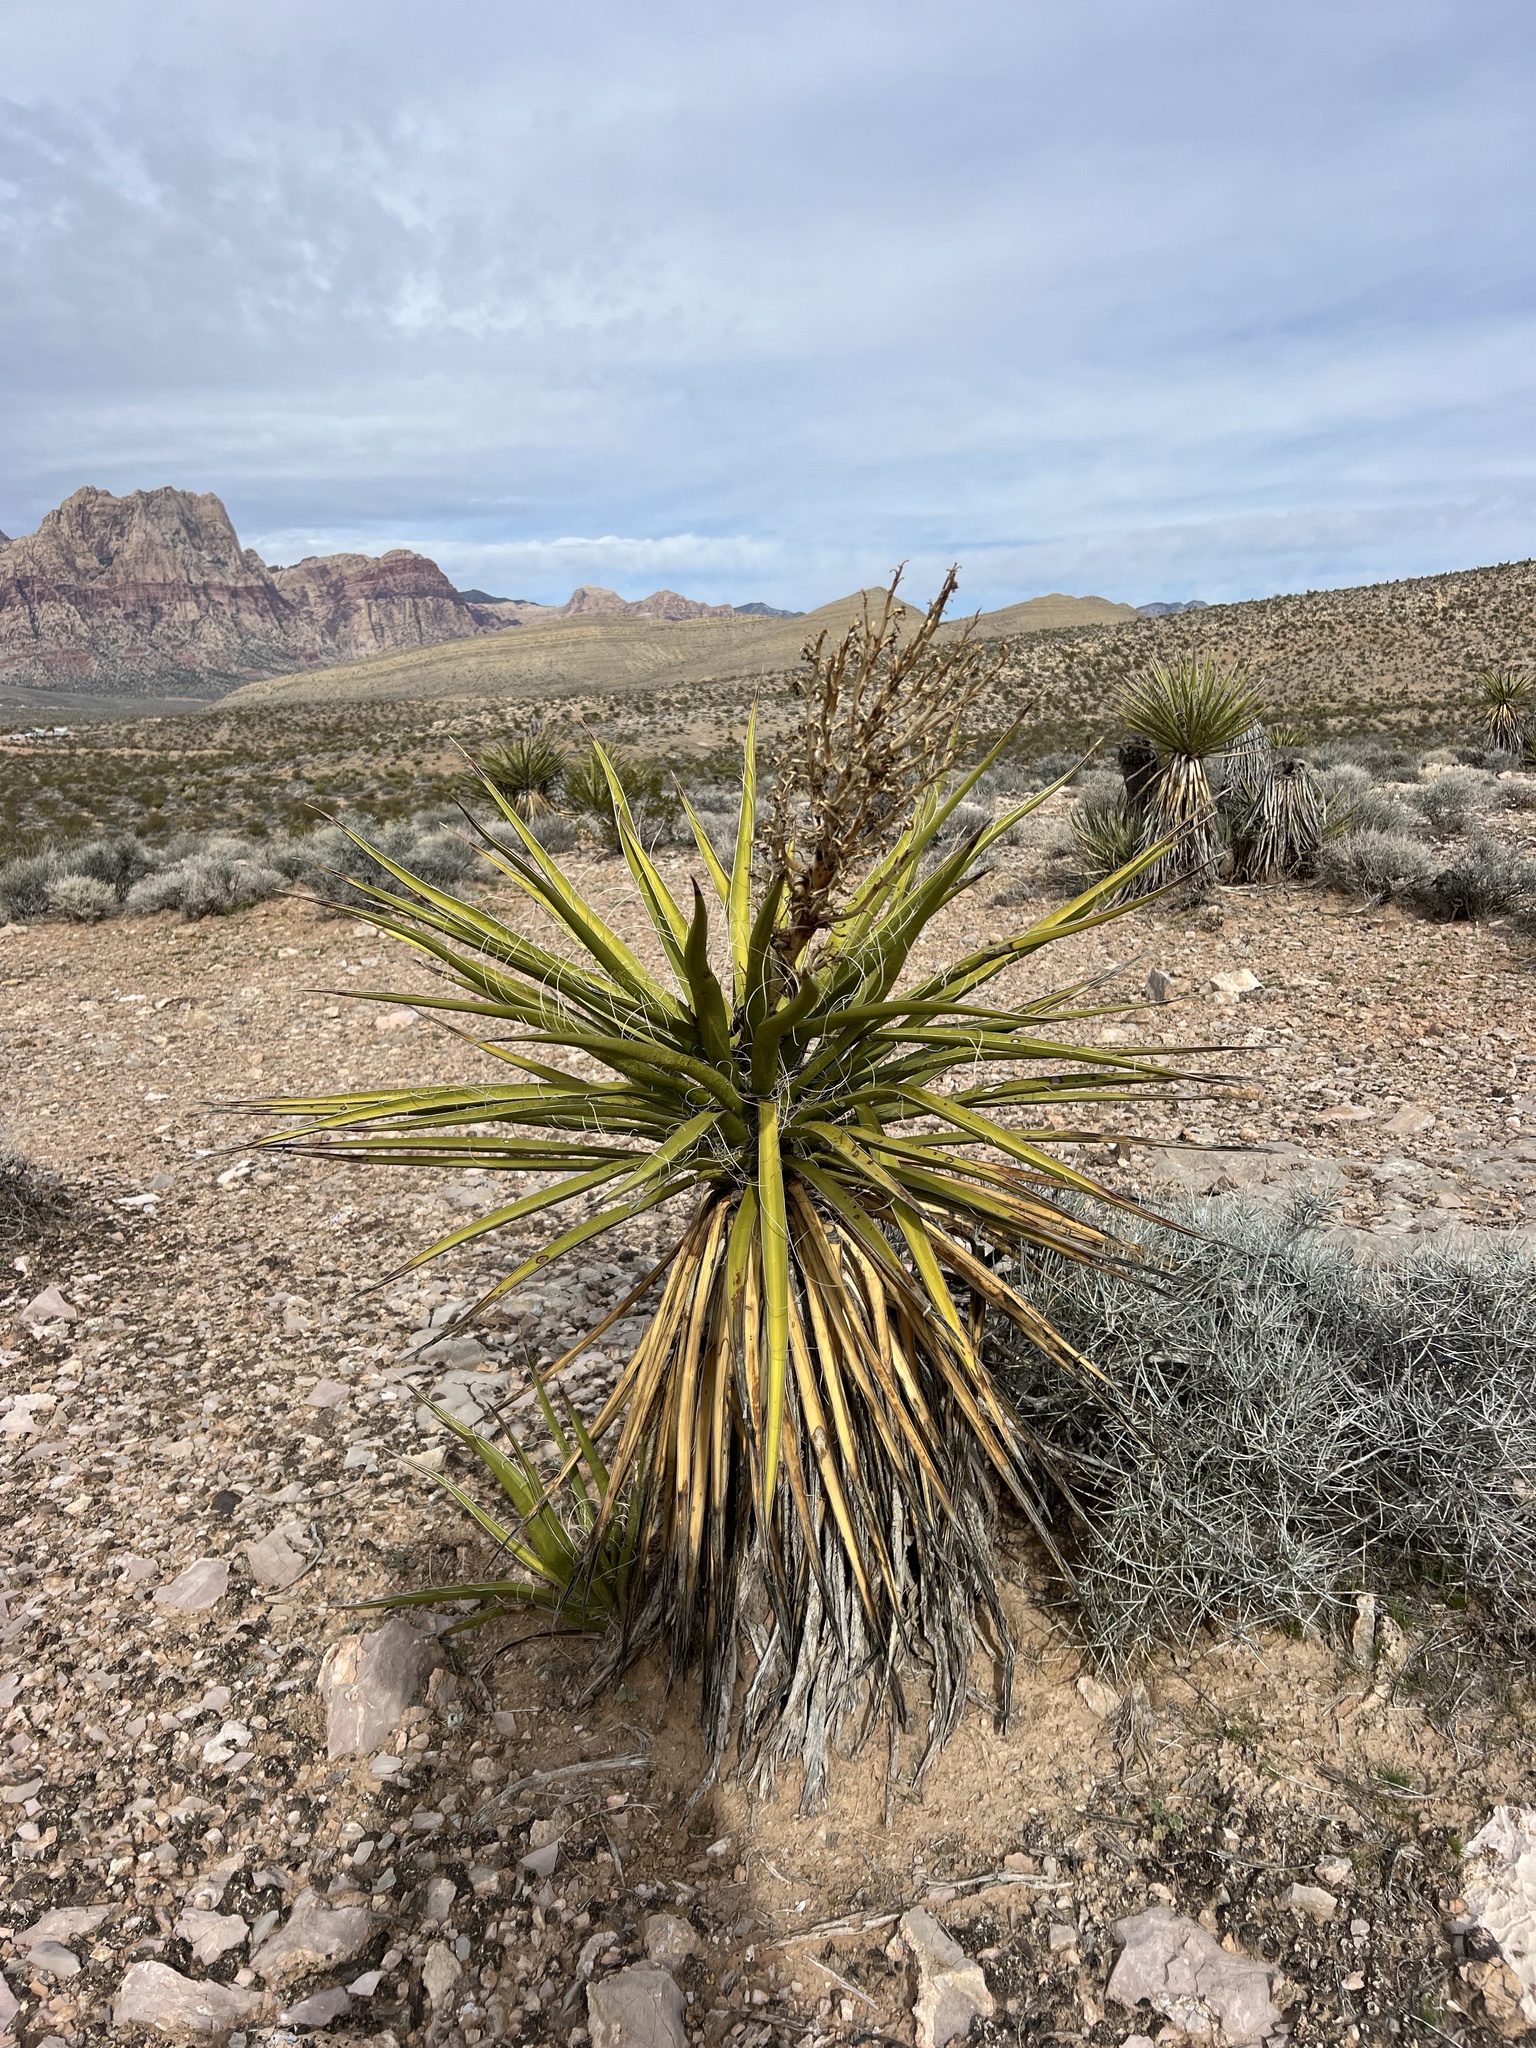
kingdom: Plantae
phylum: Tracheophyta
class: Liliopsida
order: Asparagales
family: Asparagaceae
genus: Yucca
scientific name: Yucca schidigera
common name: Mojave yucca
